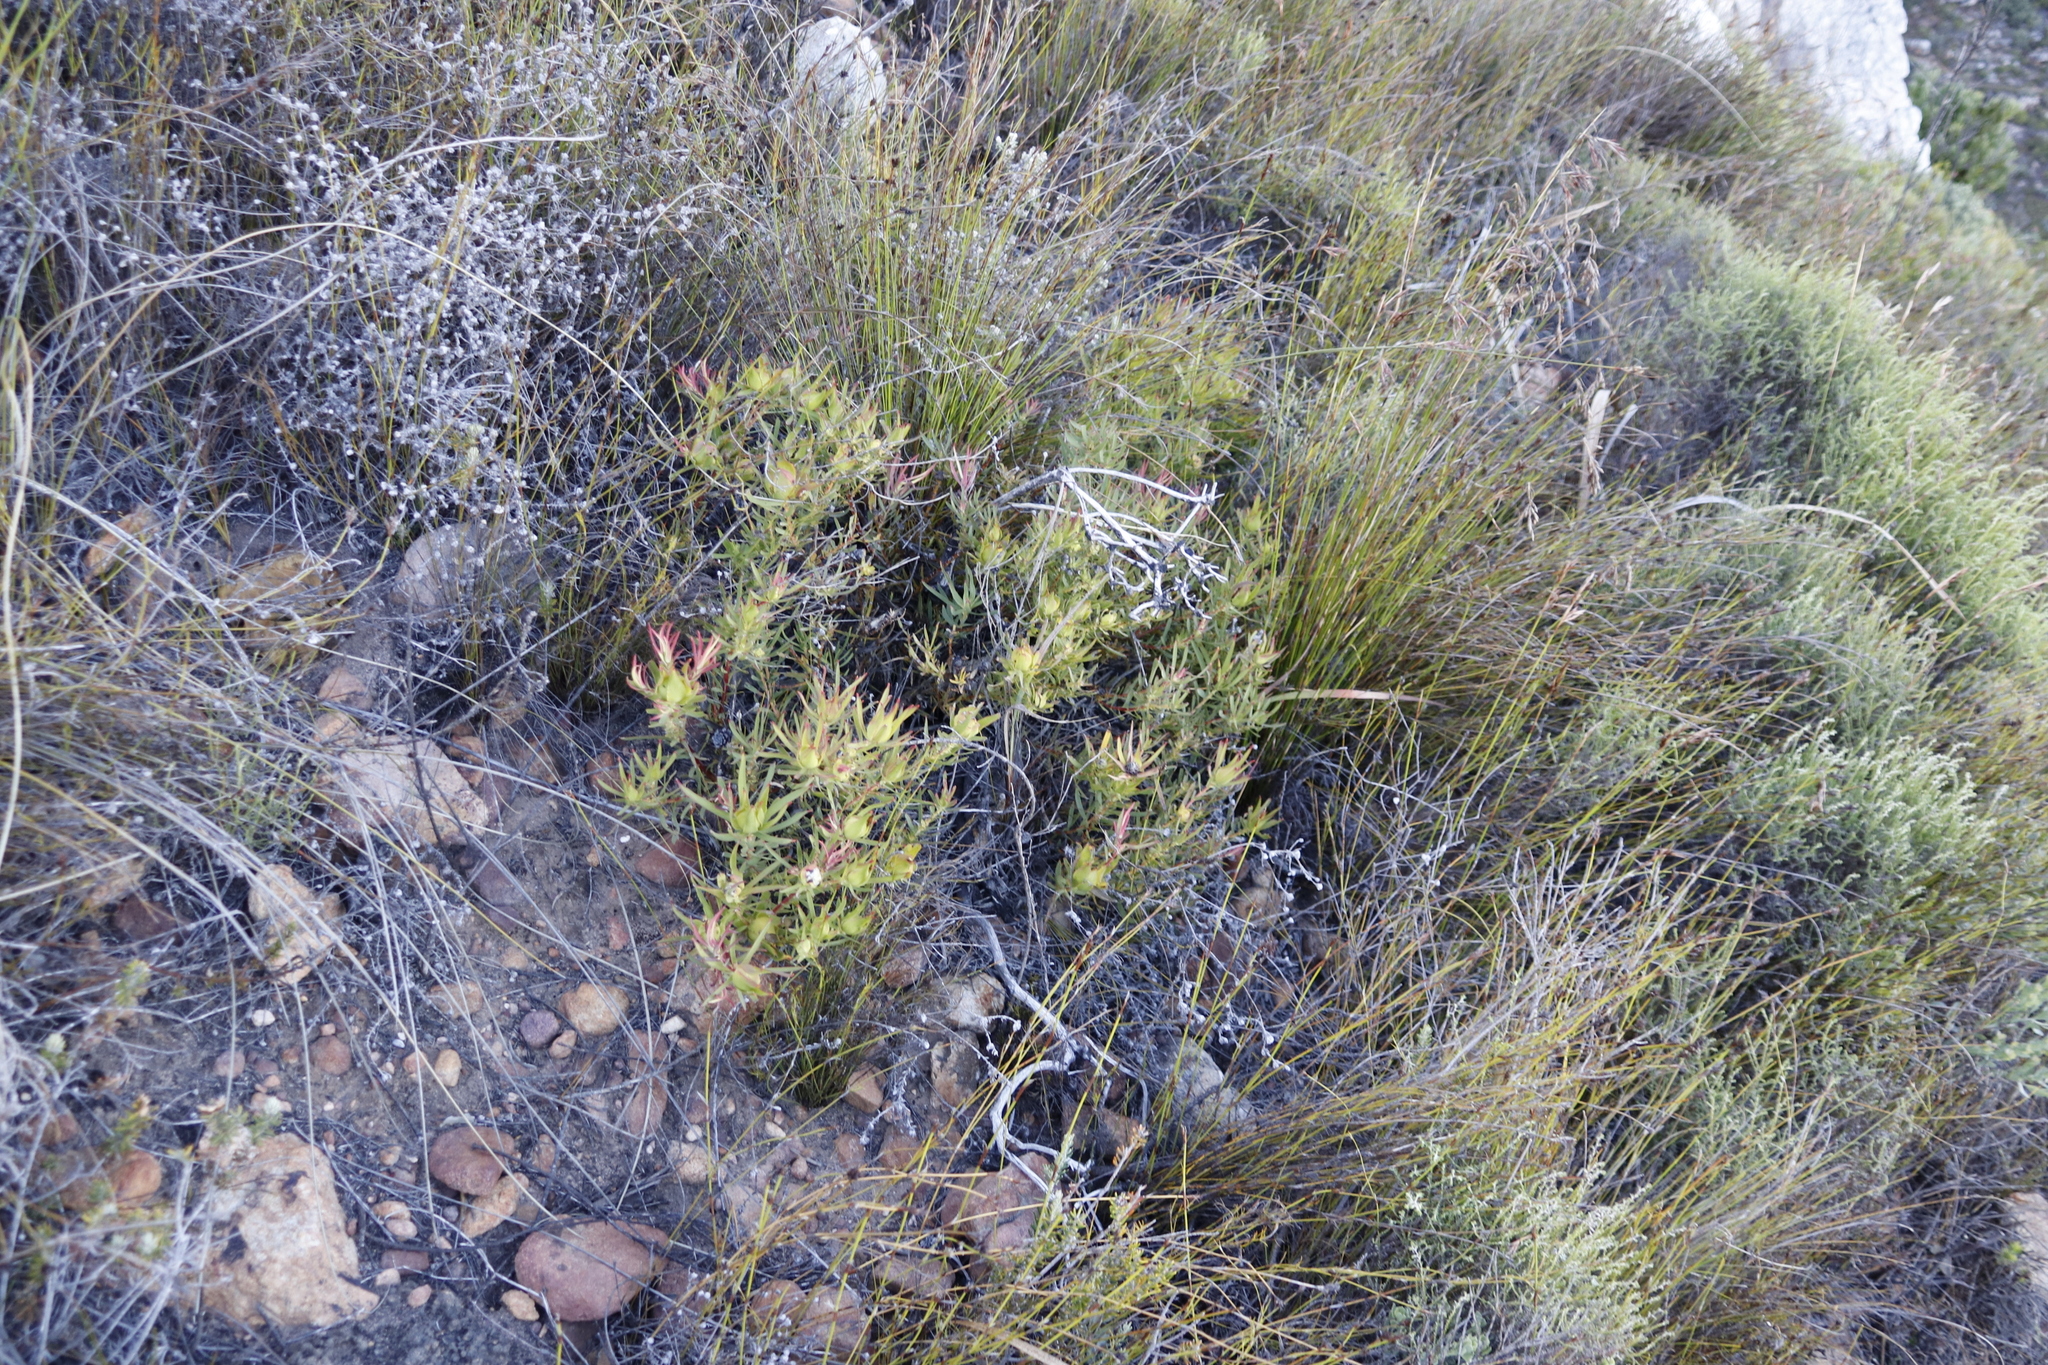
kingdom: Plantae
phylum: Tracheophyta
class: Magnoliopsida
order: Proteales
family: Proteaceae
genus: Leucadendron
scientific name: Leucadendron salignum
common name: Common sunshine conebush
